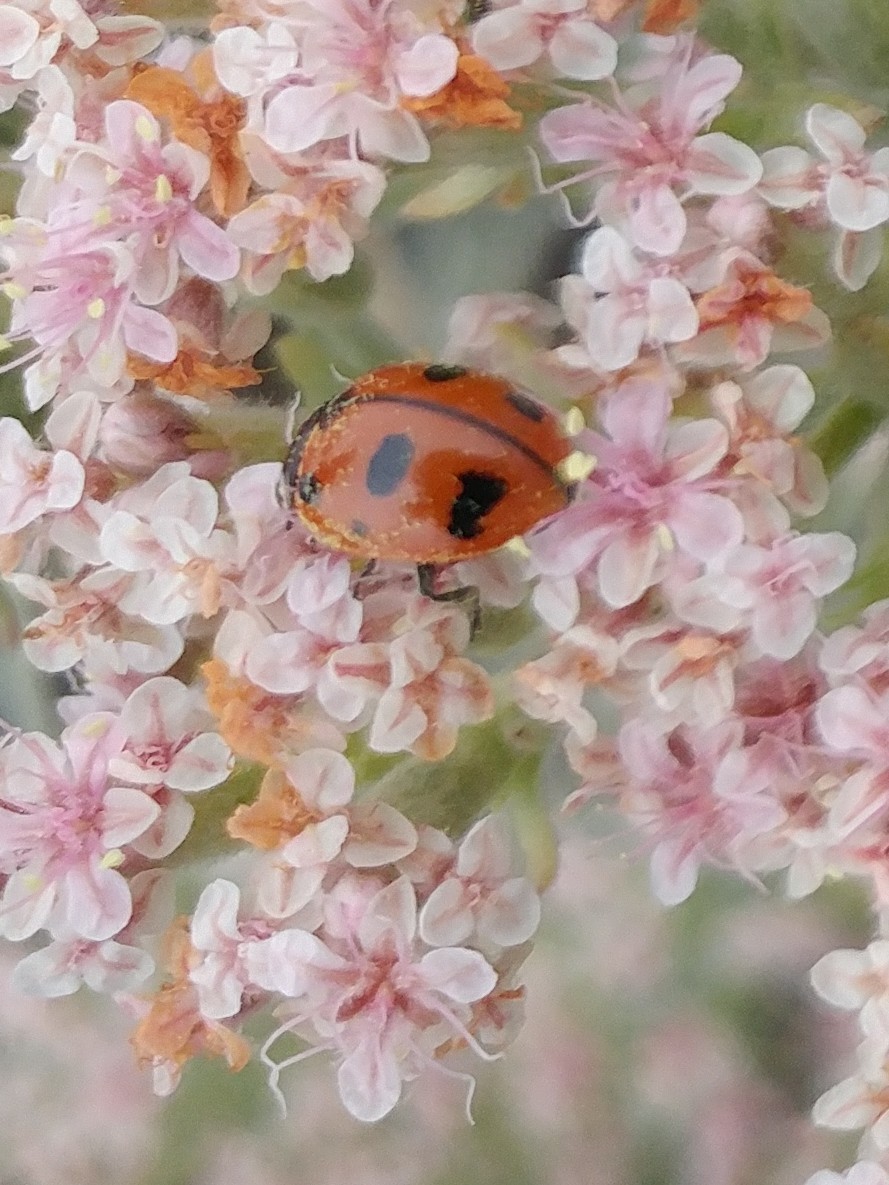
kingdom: Animalia
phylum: Arthropoda
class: Insecta
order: Coleoptera
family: Coccinellidae
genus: Coccinella
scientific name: Coccinella californica
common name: Lady beetle
